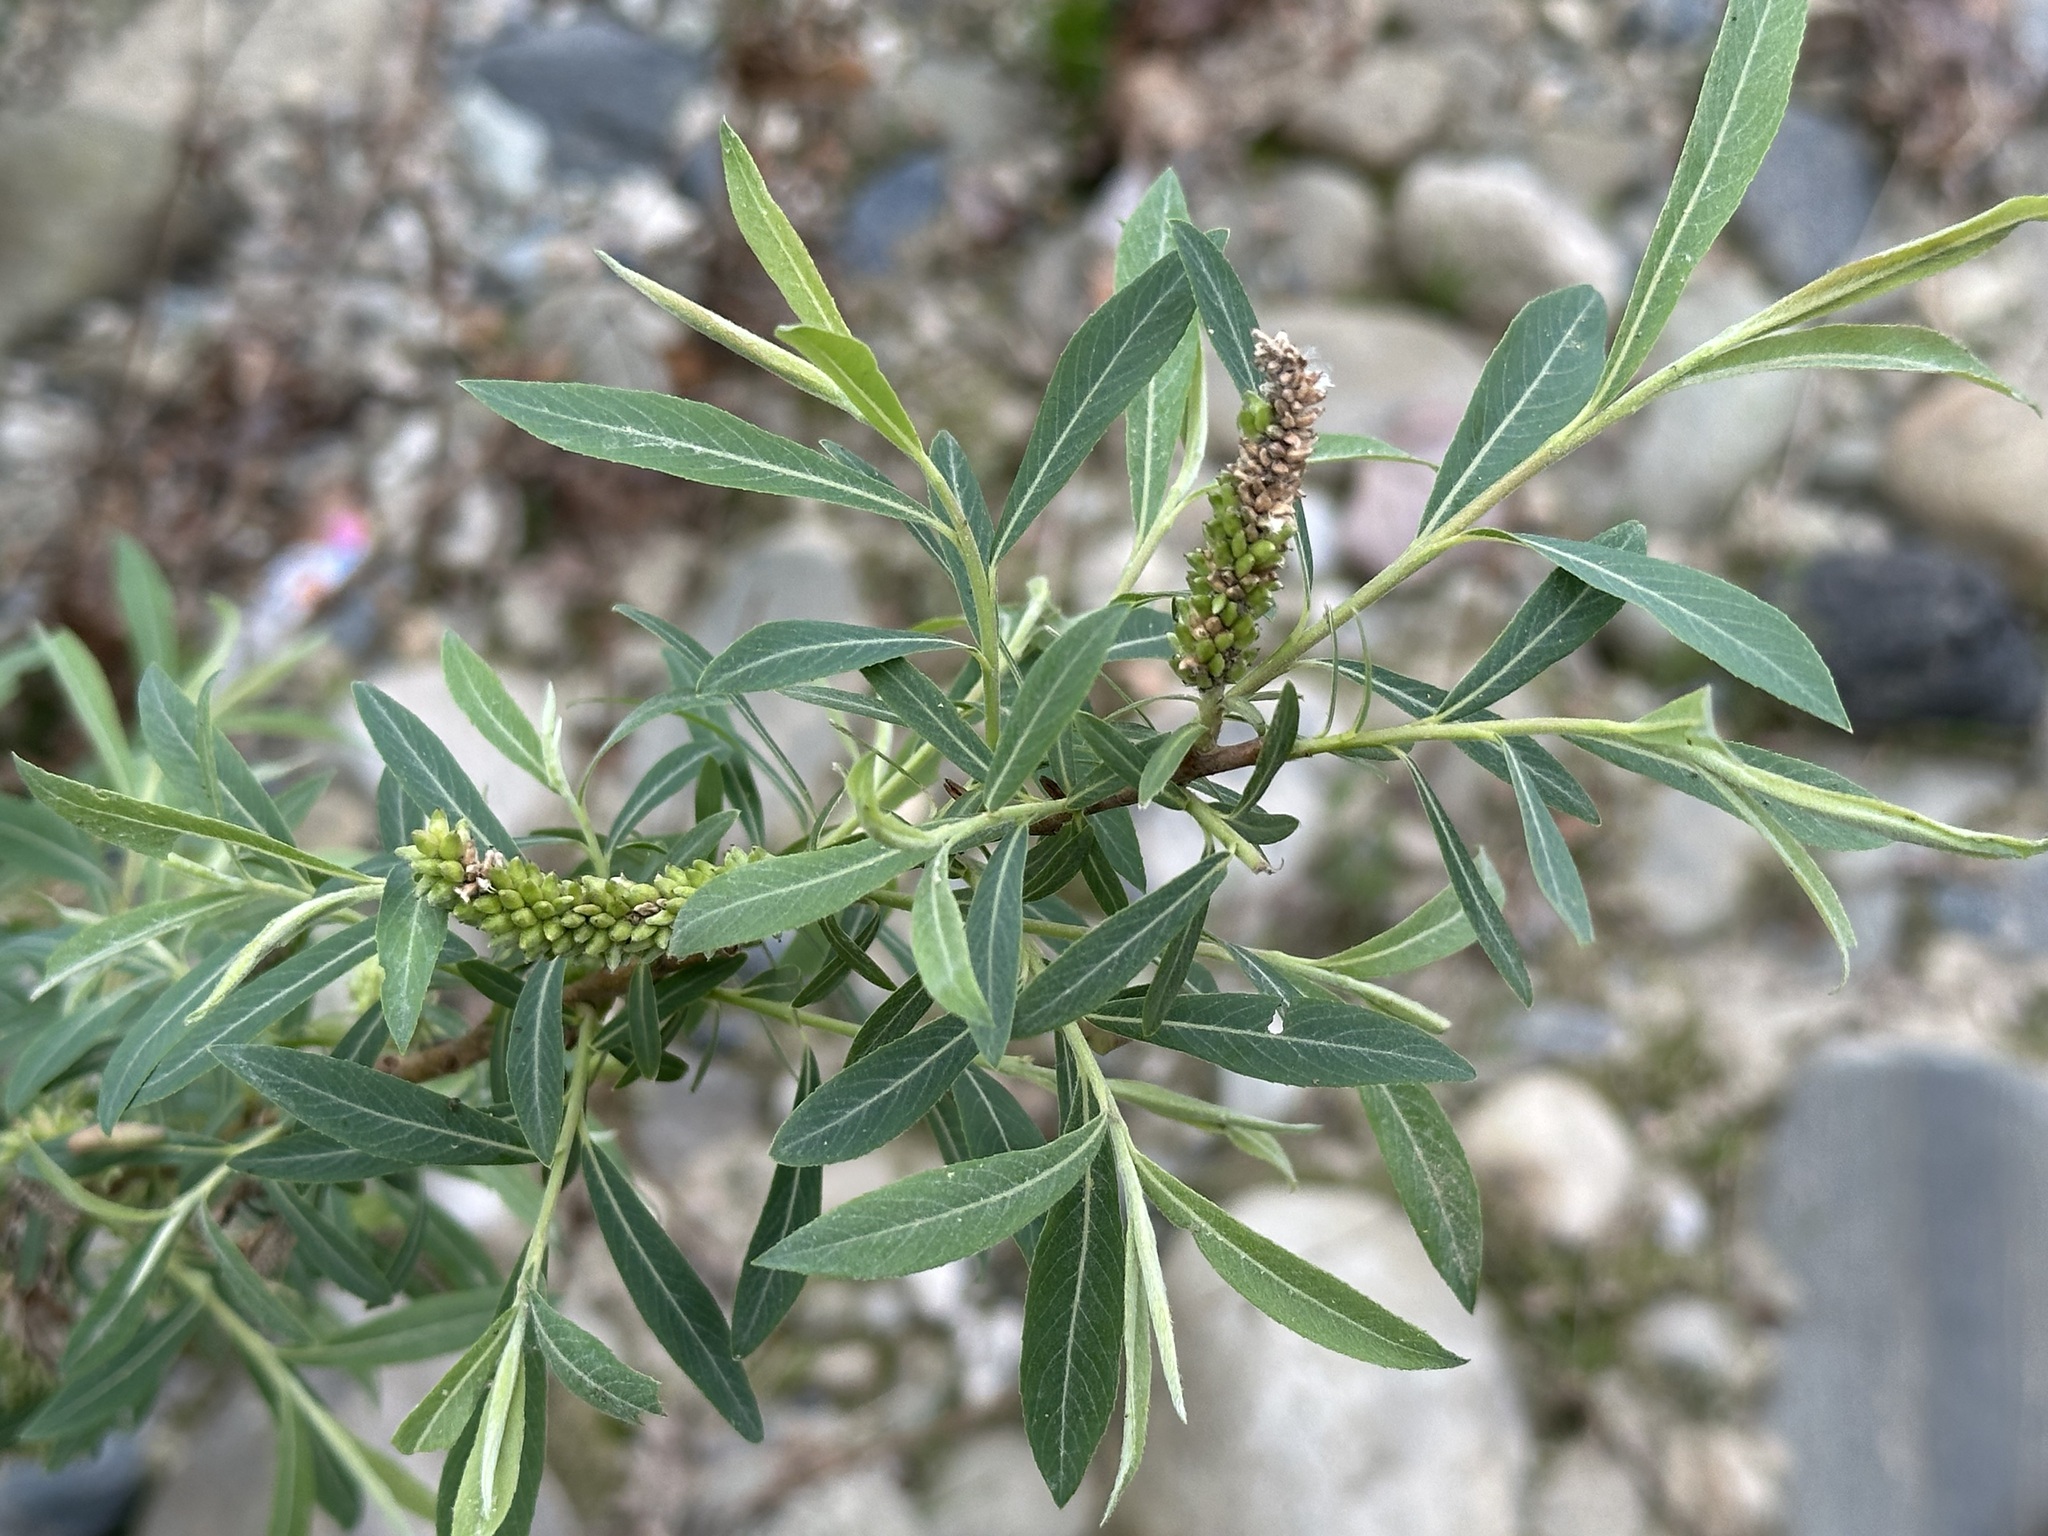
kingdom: Plantae
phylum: Tracheophyta
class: Magnoliopsida
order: Malpighiales
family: Salicaceae
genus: Salix
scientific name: Salix purpurea
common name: Purple willow
